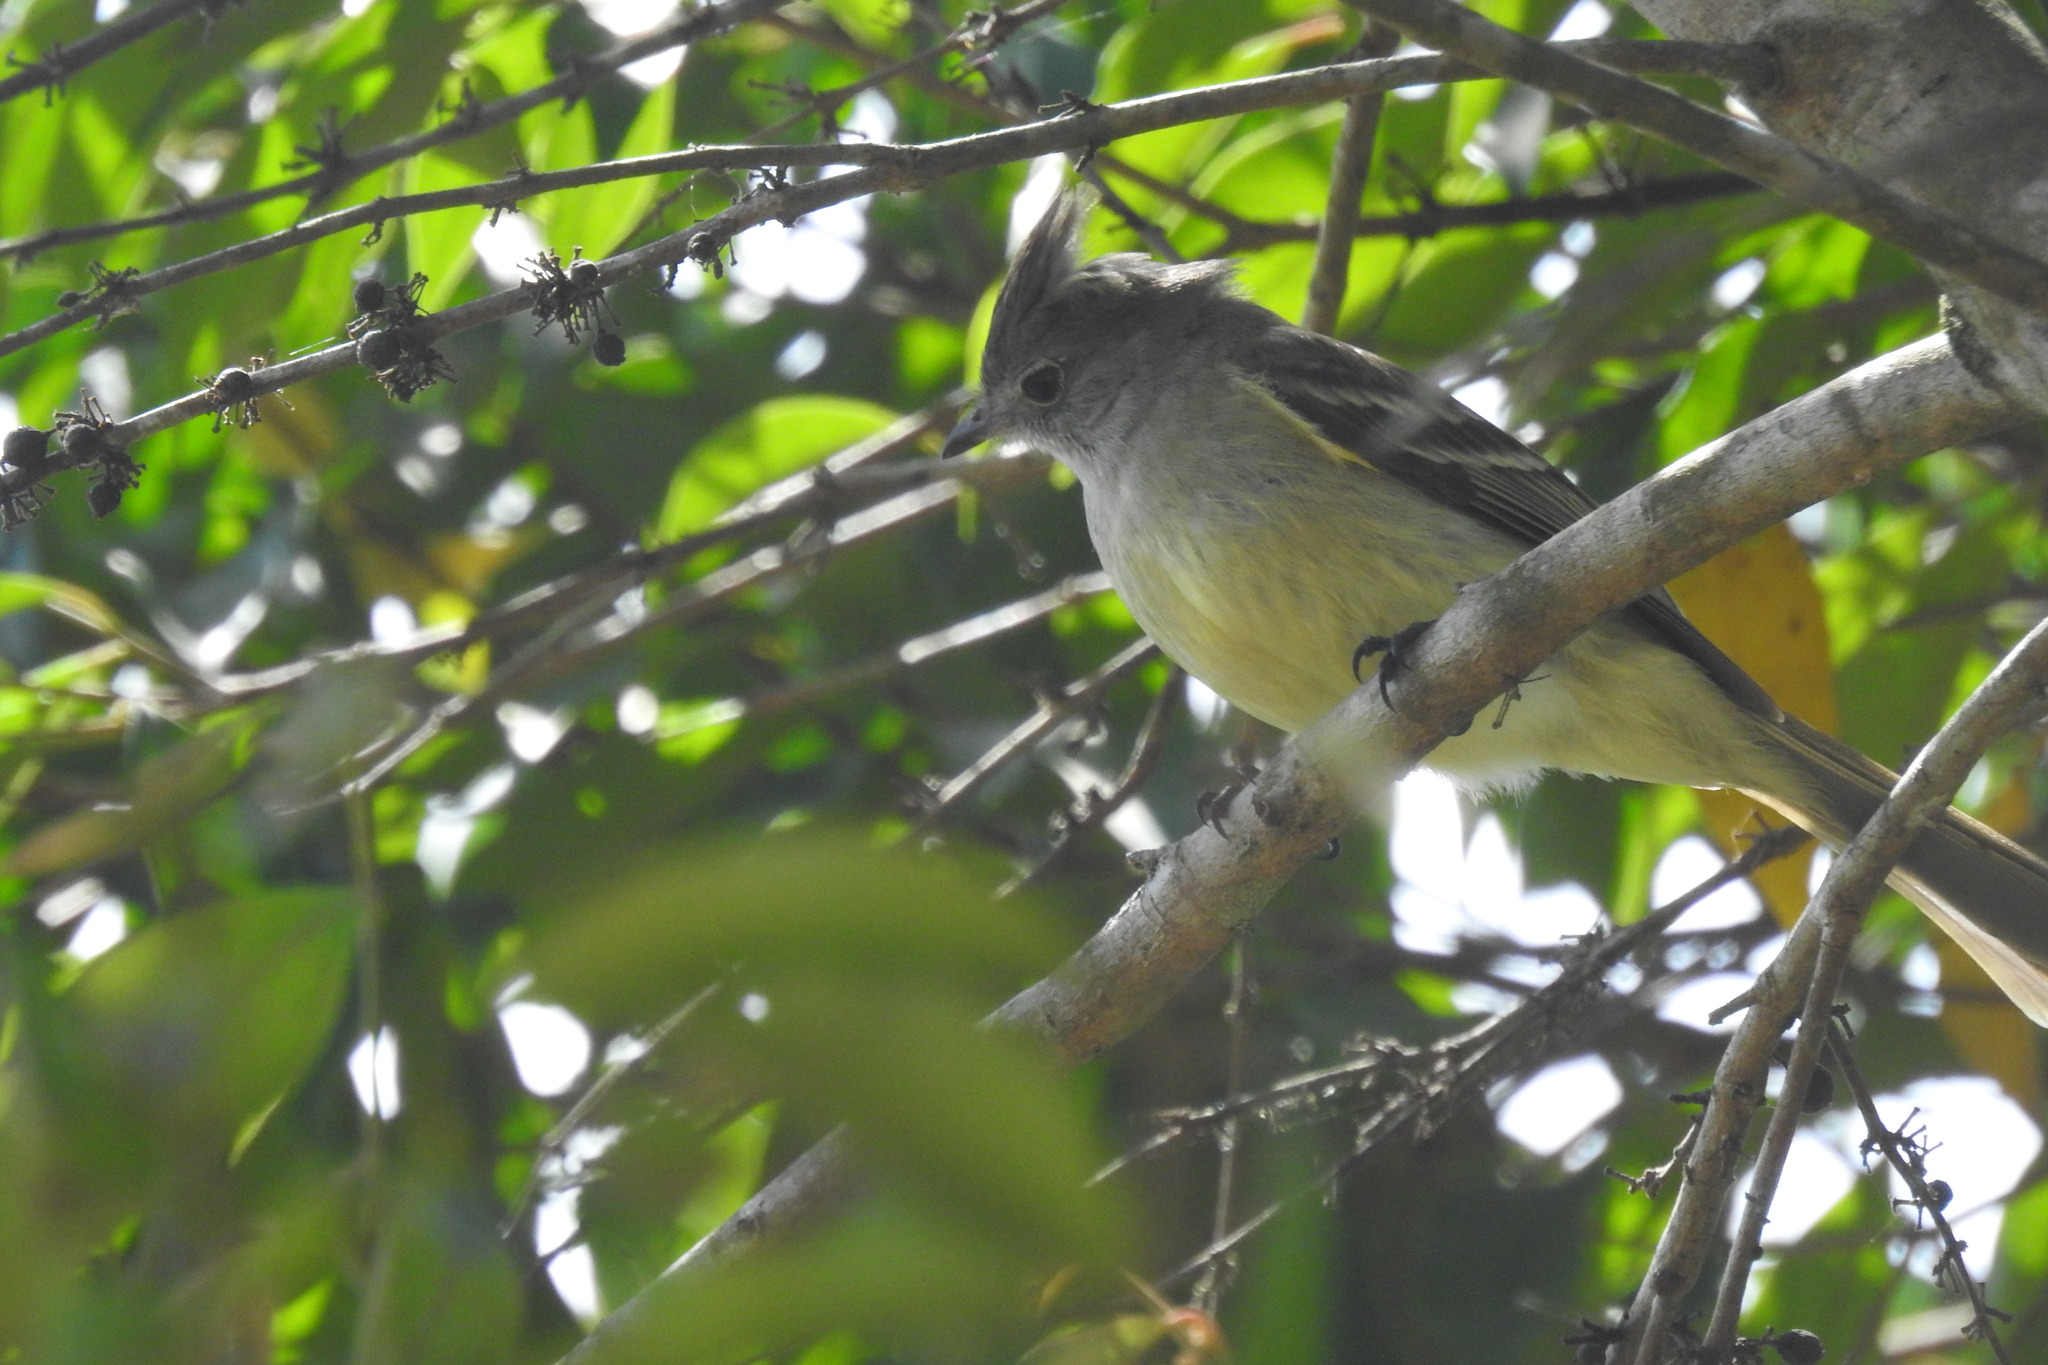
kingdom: Animalia
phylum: Chordata
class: Aves
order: Passeriformes
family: Tyrannidae
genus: Elaenia
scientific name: Elaenia flavogaster
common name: Yellow-bellied elaenia
